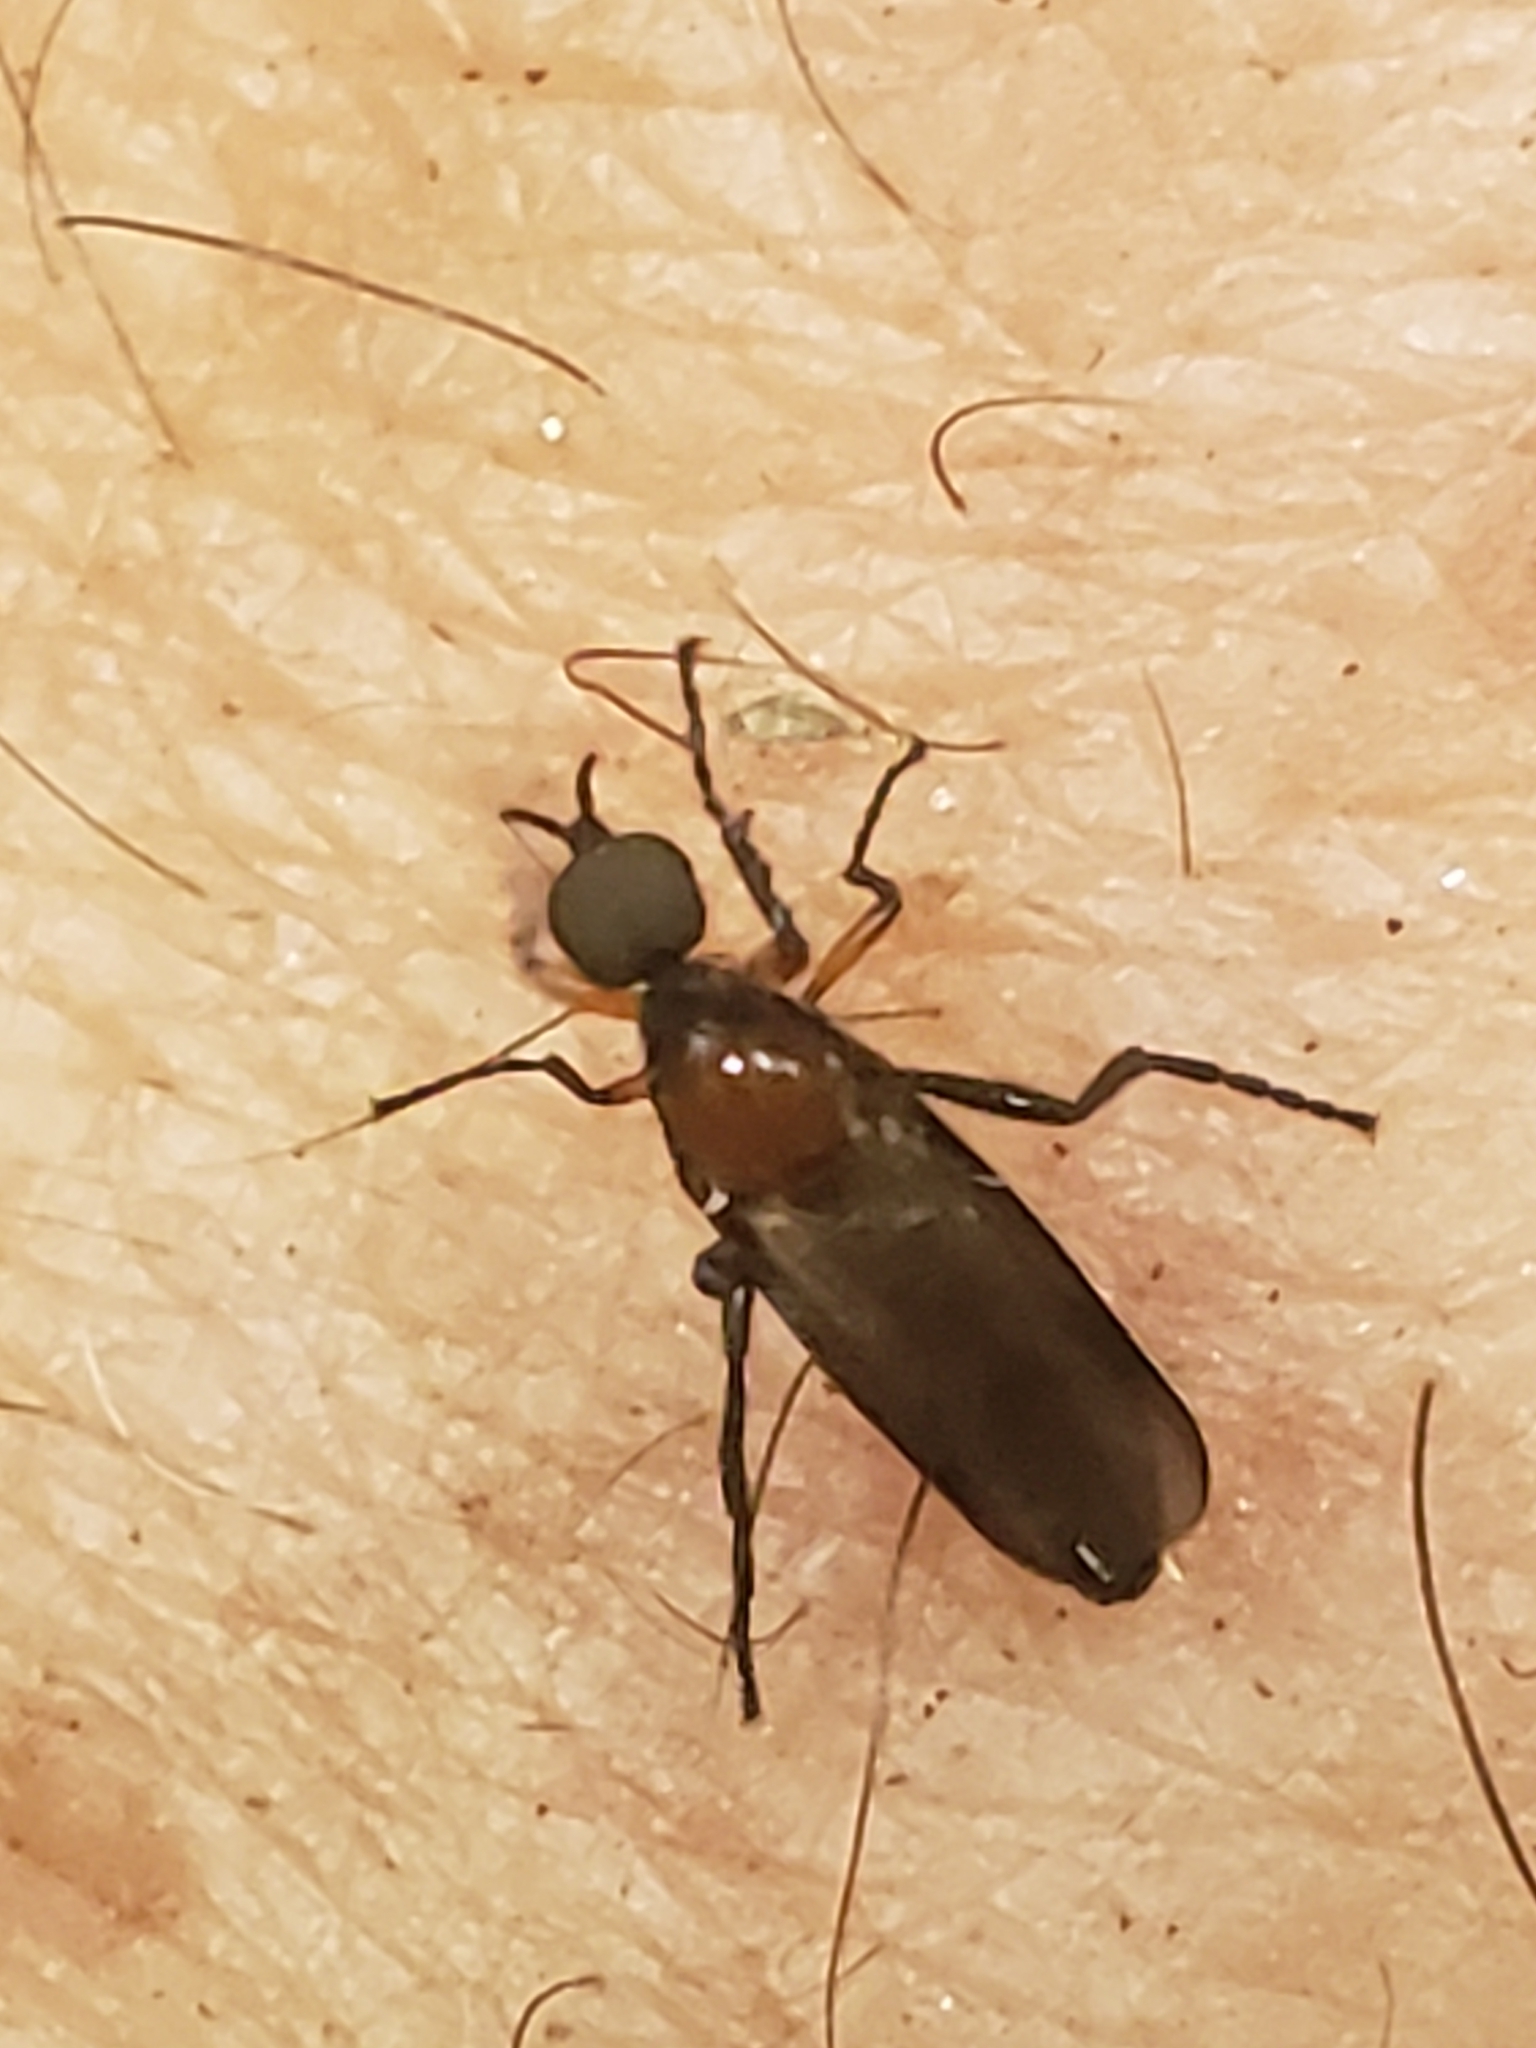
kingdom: Animalia
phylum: Arthropoda
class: Insecta
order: Diptera
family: Bibionidae
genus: Dilophus
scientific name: Dilophus spinipes
